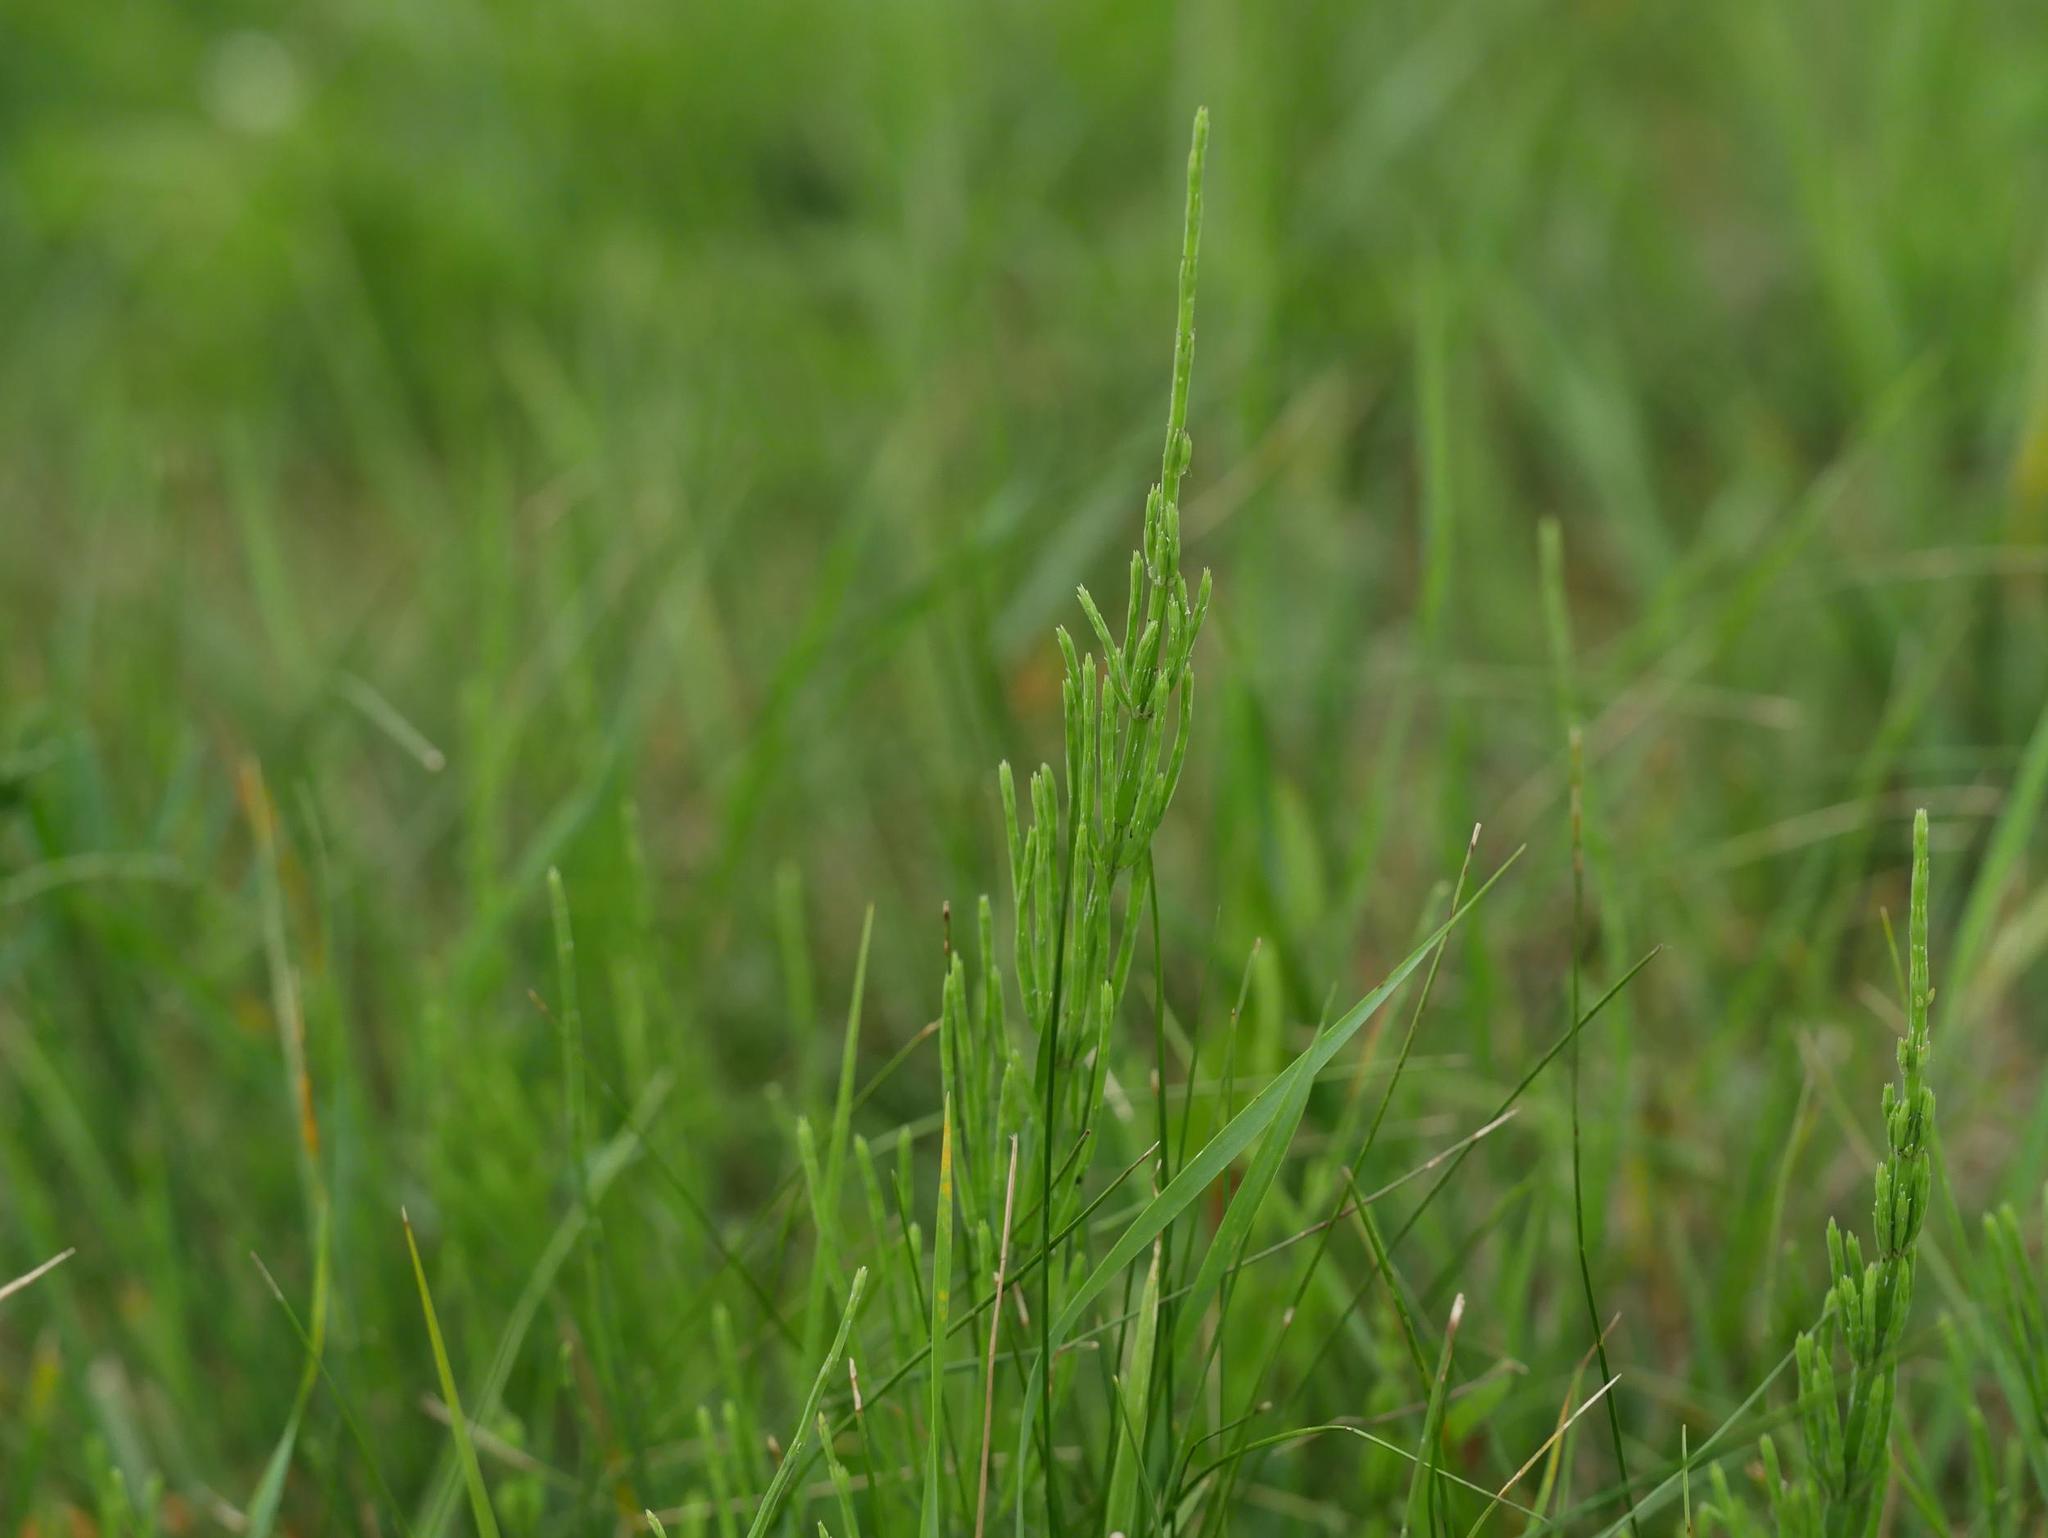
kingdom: Plantae
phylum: Tracheophyta
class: Polypodiopsida
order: Equisetales
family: Equisetaceae
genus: Equisetum
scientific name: Equisetum arvense
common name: Field horsetail
